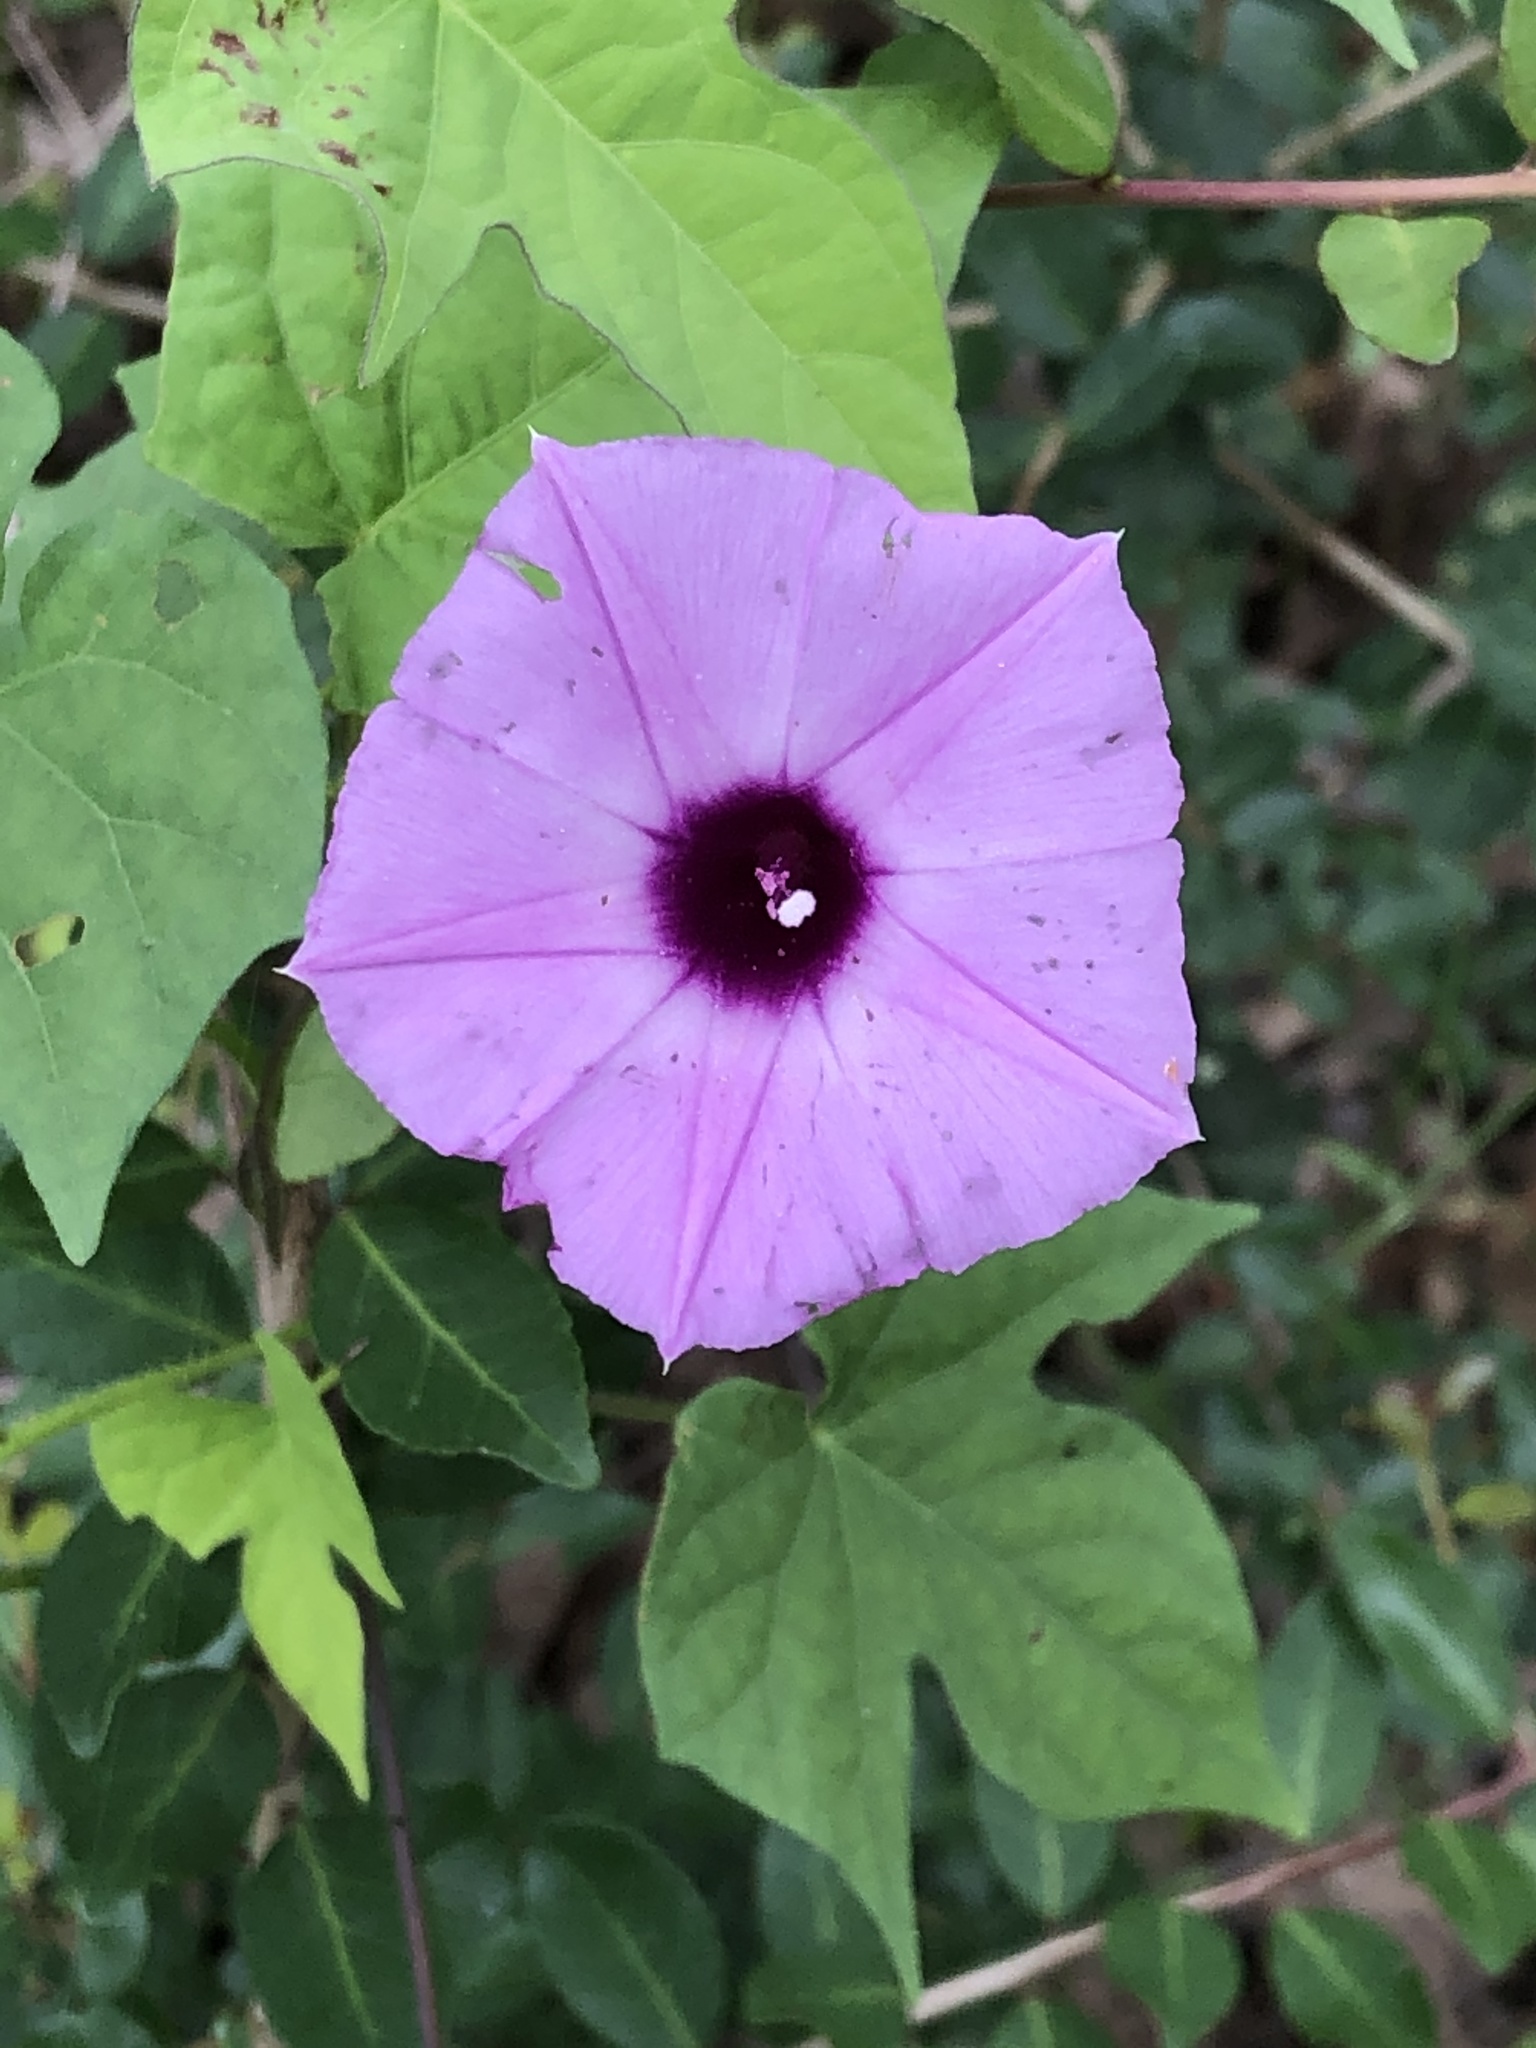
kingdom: Plantae
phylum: Tracheophyta
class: Magnoliopsida
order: Solanales
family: Convolvulaceae
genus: Ipomoea
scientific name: Ipomoea cordatotriloba
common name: Cotton morning glory
